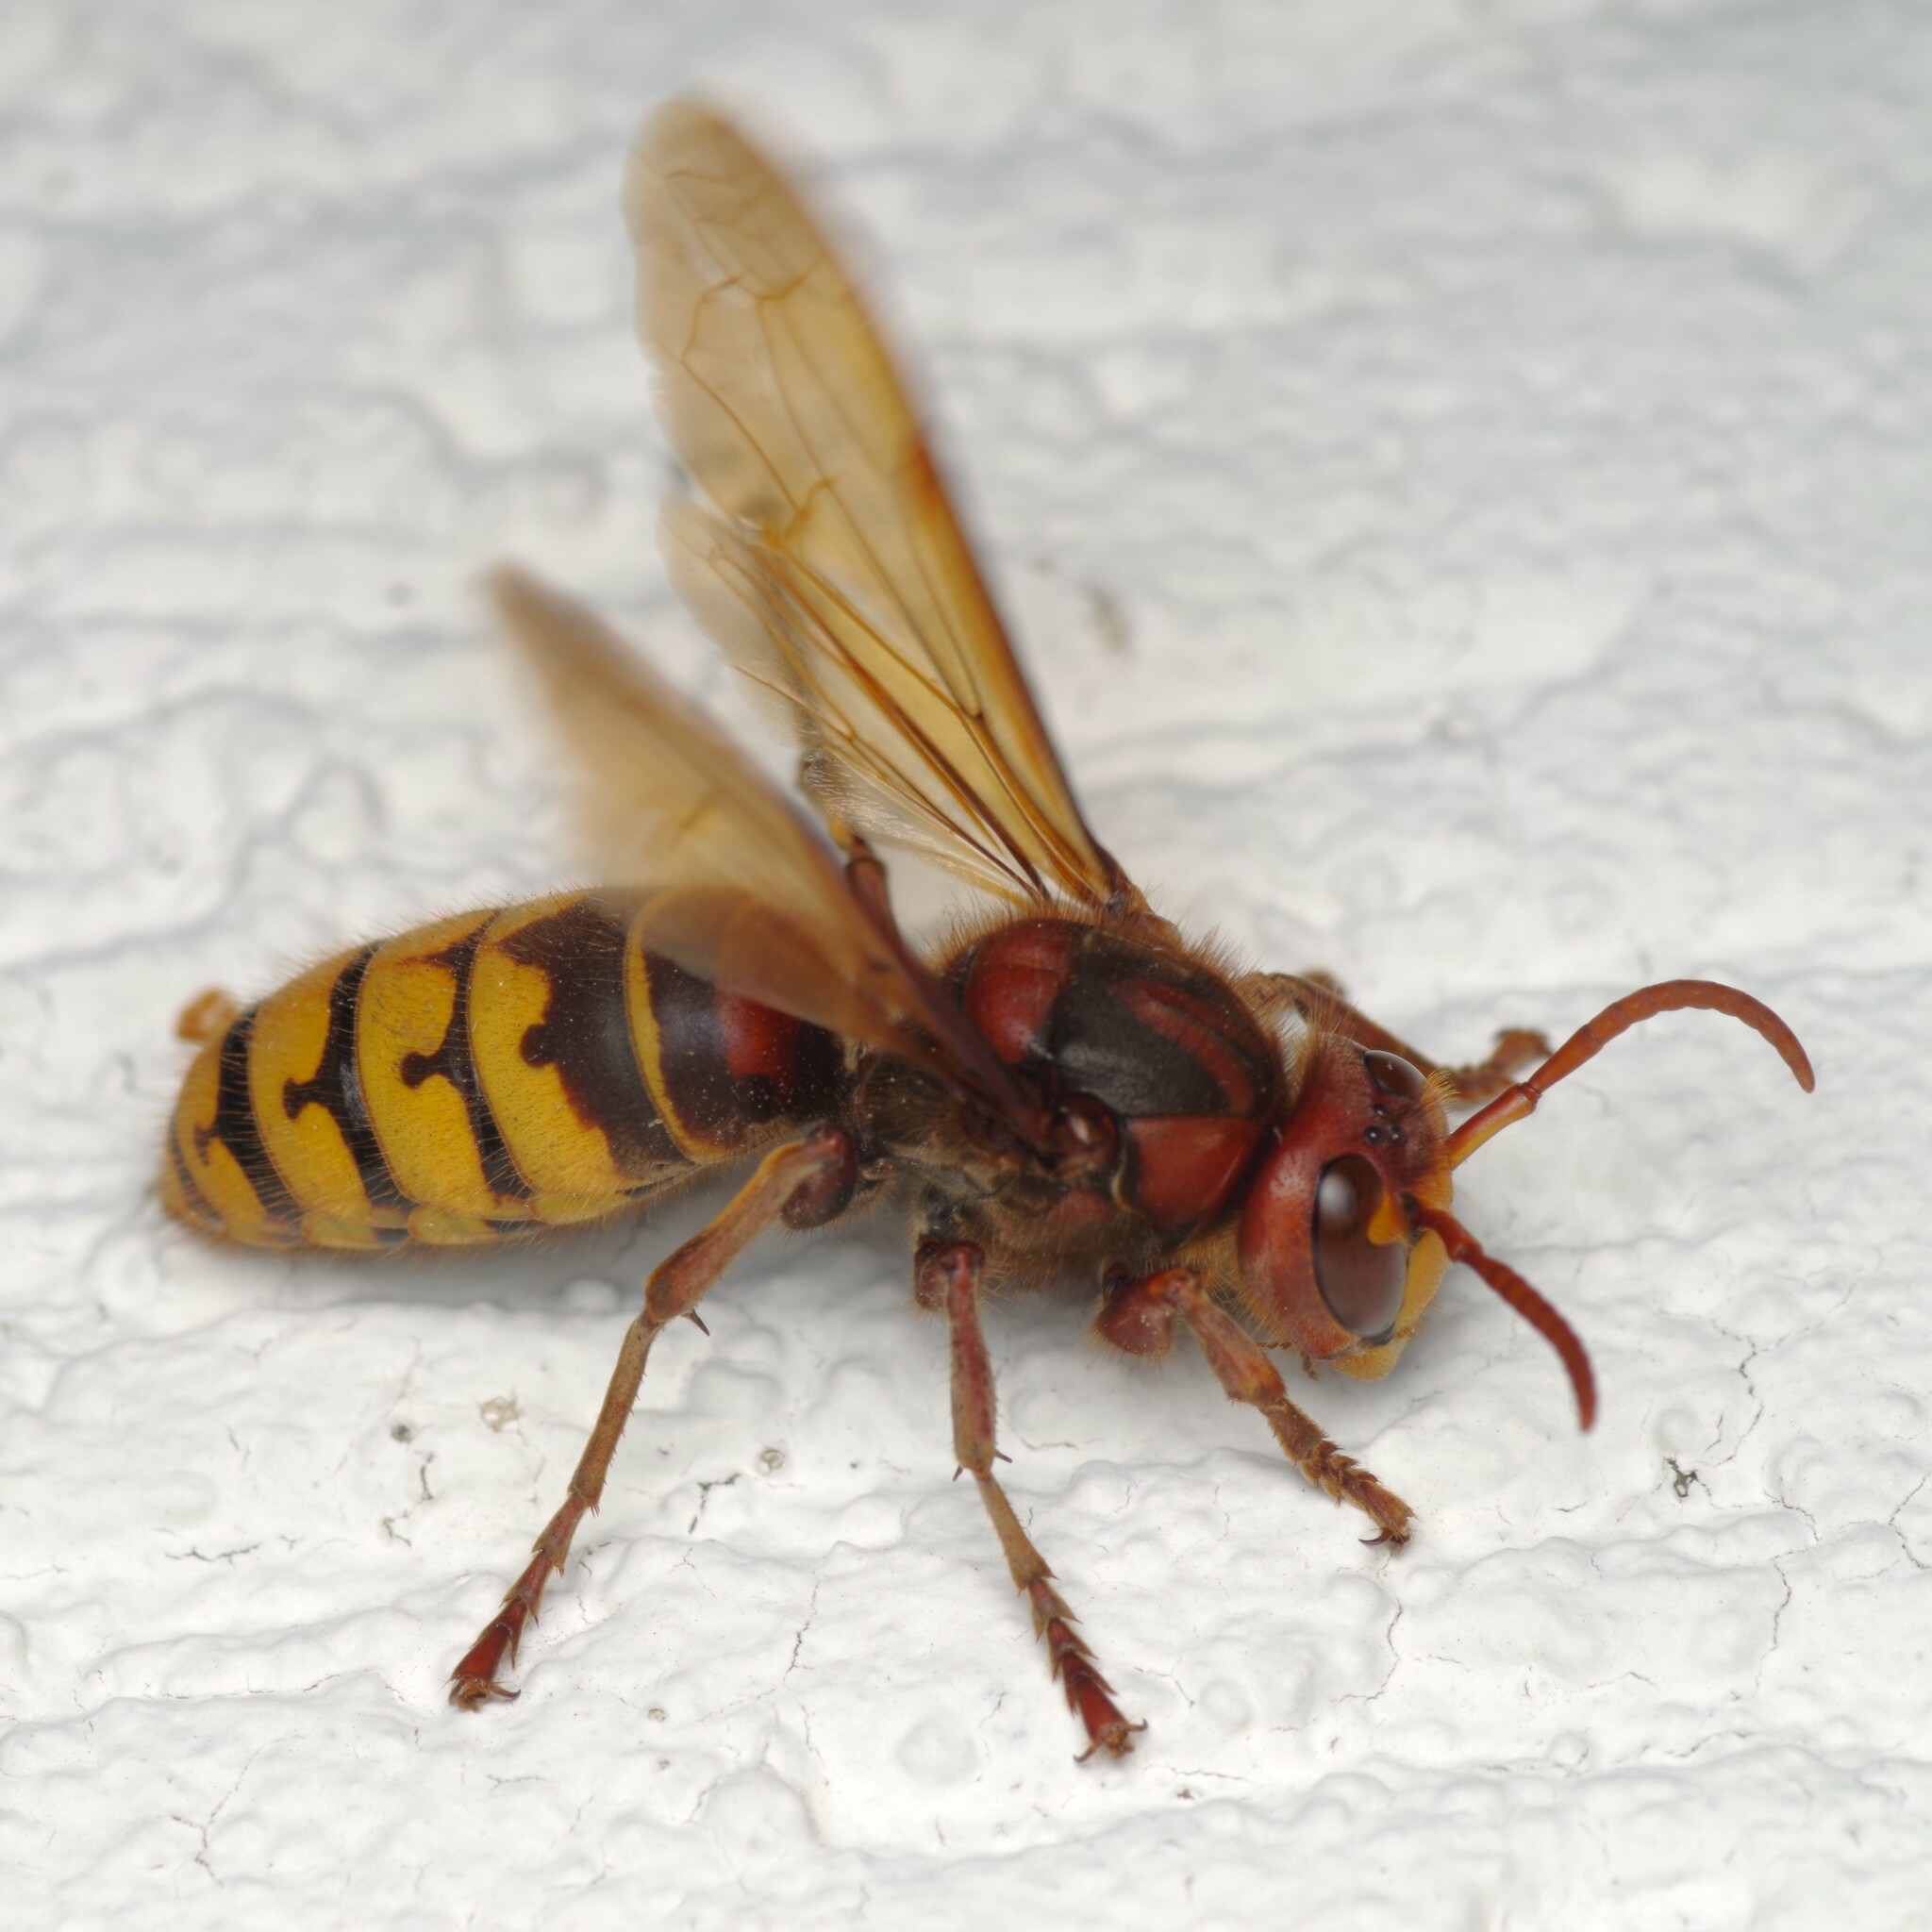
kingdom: Animalia
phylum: Arthropoda
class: Insecta
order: Hymenoptera
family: Vespidae
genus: Vespa
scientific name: Vespa crabro
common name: Hornet
